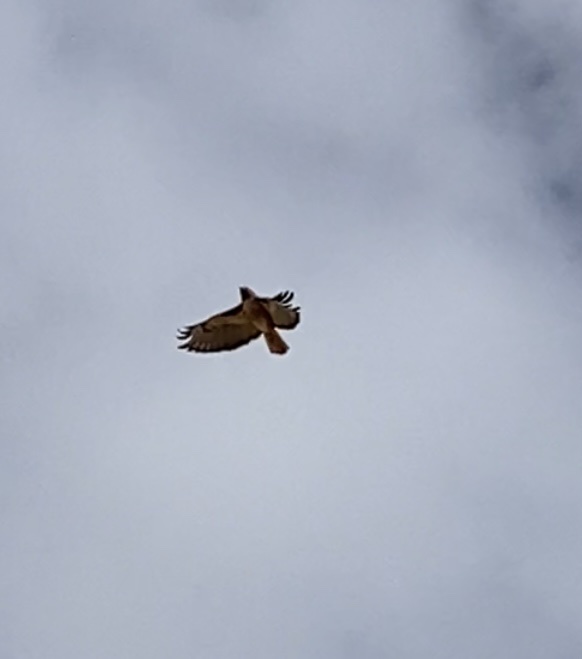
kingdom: Animalia
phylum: Chordata
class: Aves
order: Accipitriformes
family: Accipitridae
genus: Buteo
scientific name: Buteo jamaicensis
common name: Red-tailed hawk
